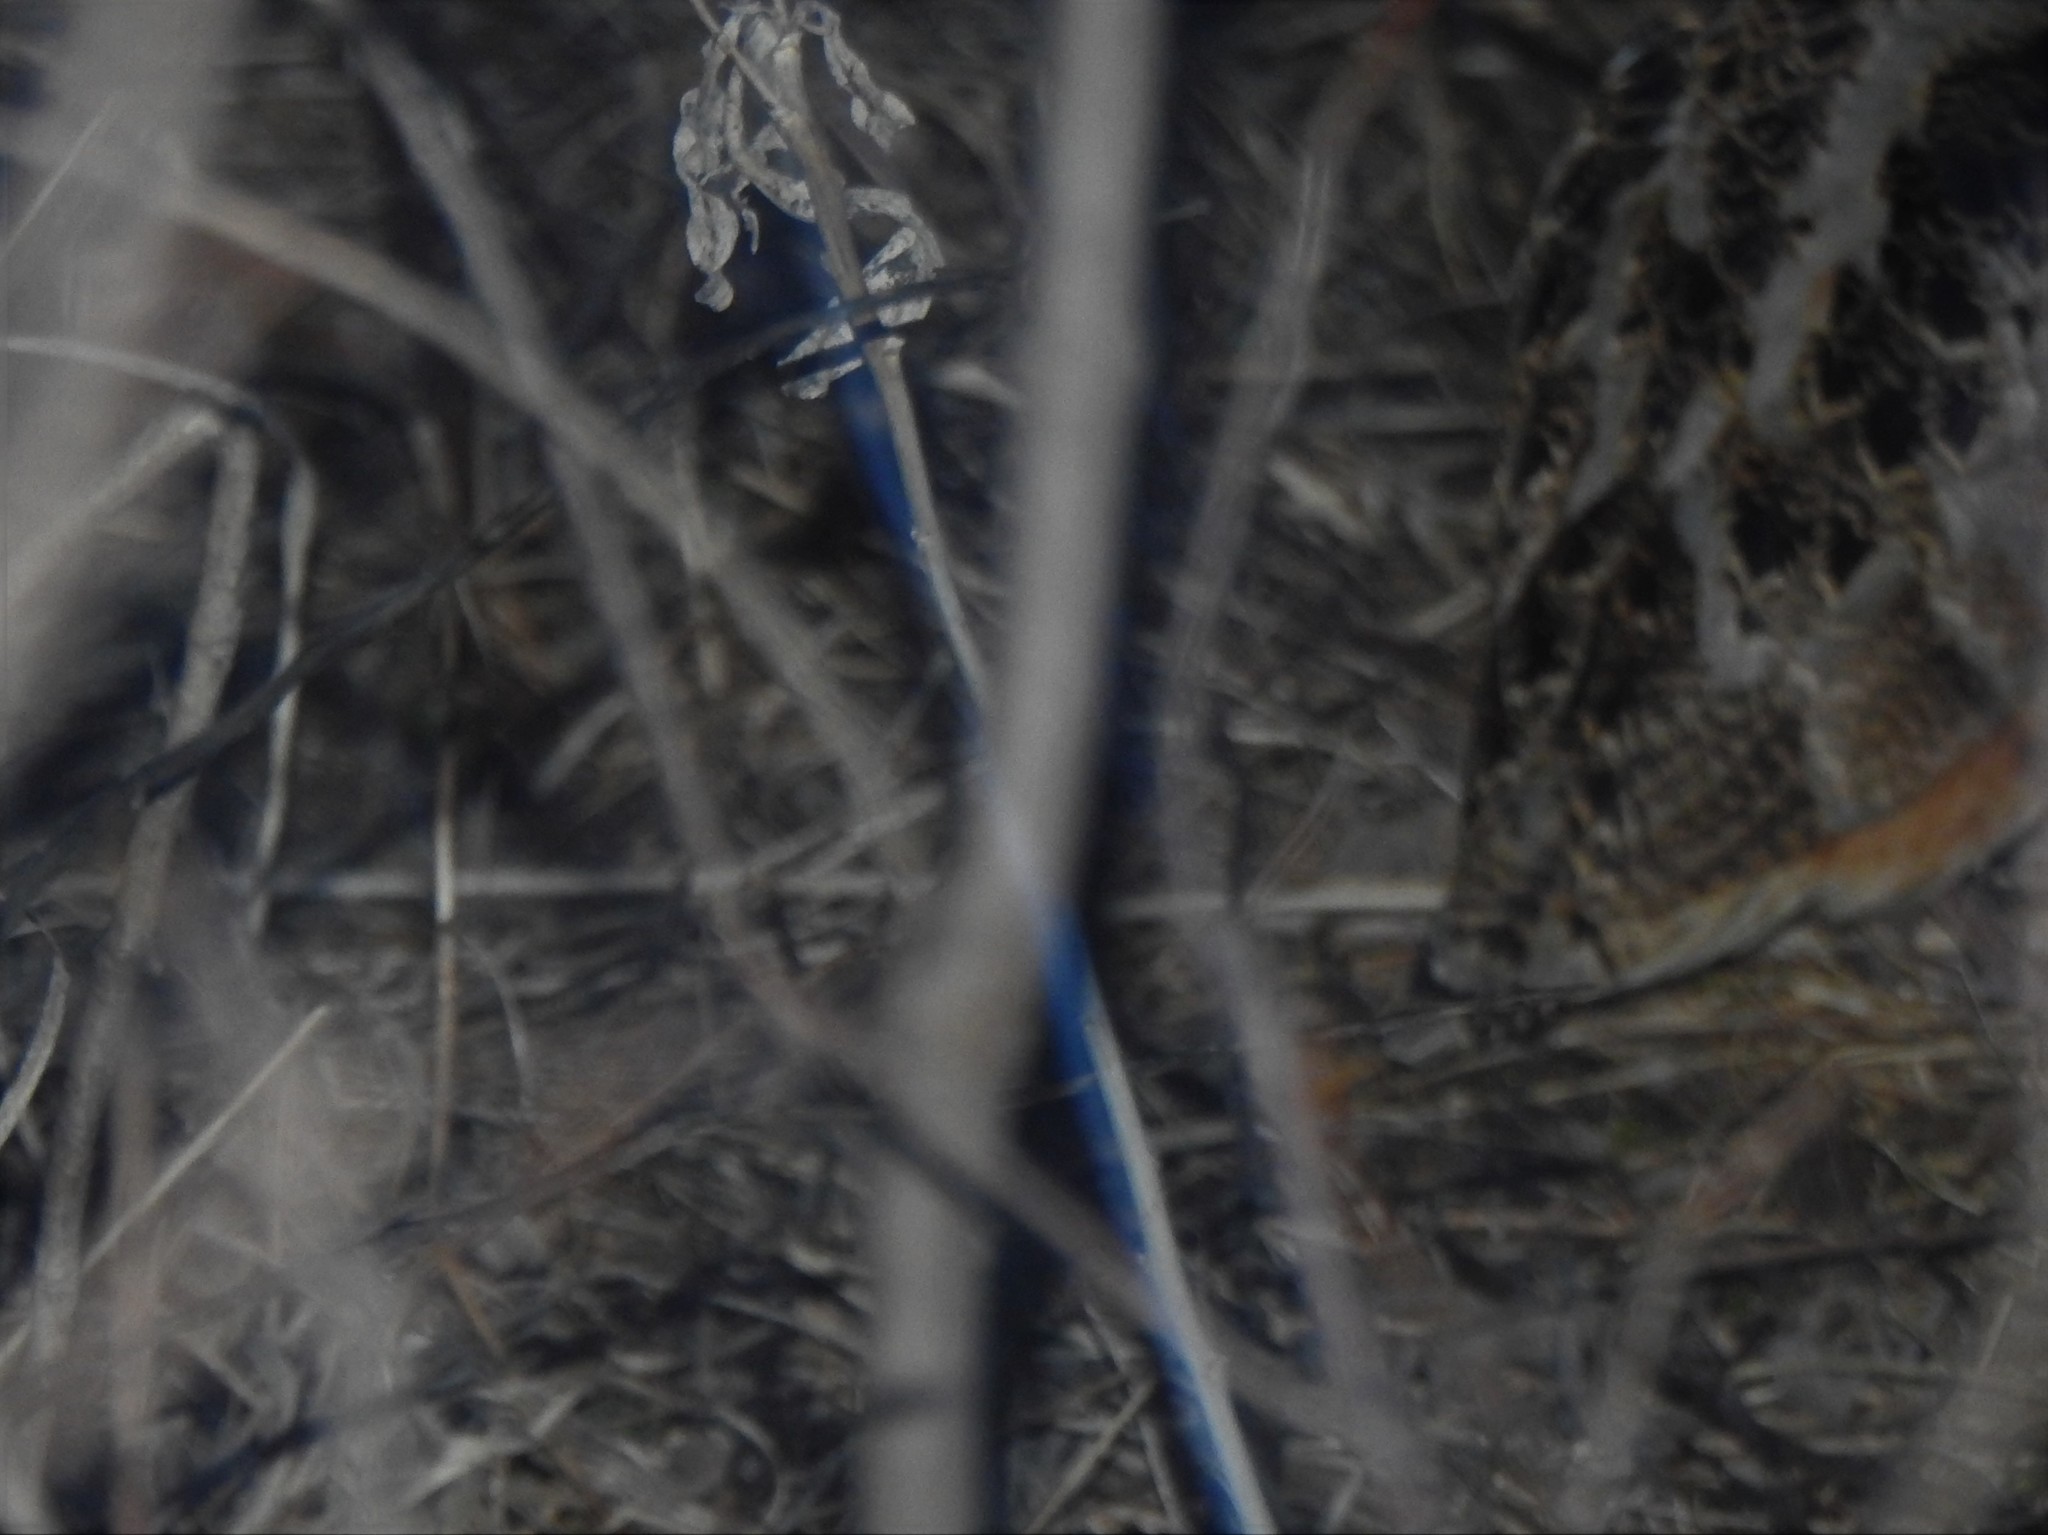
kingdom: Animalia
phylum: Chordata
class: Aves
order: Charadriiformes
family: Scolopacidae
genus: Scolopax
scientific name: Scolopax minor
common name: American woodcock
